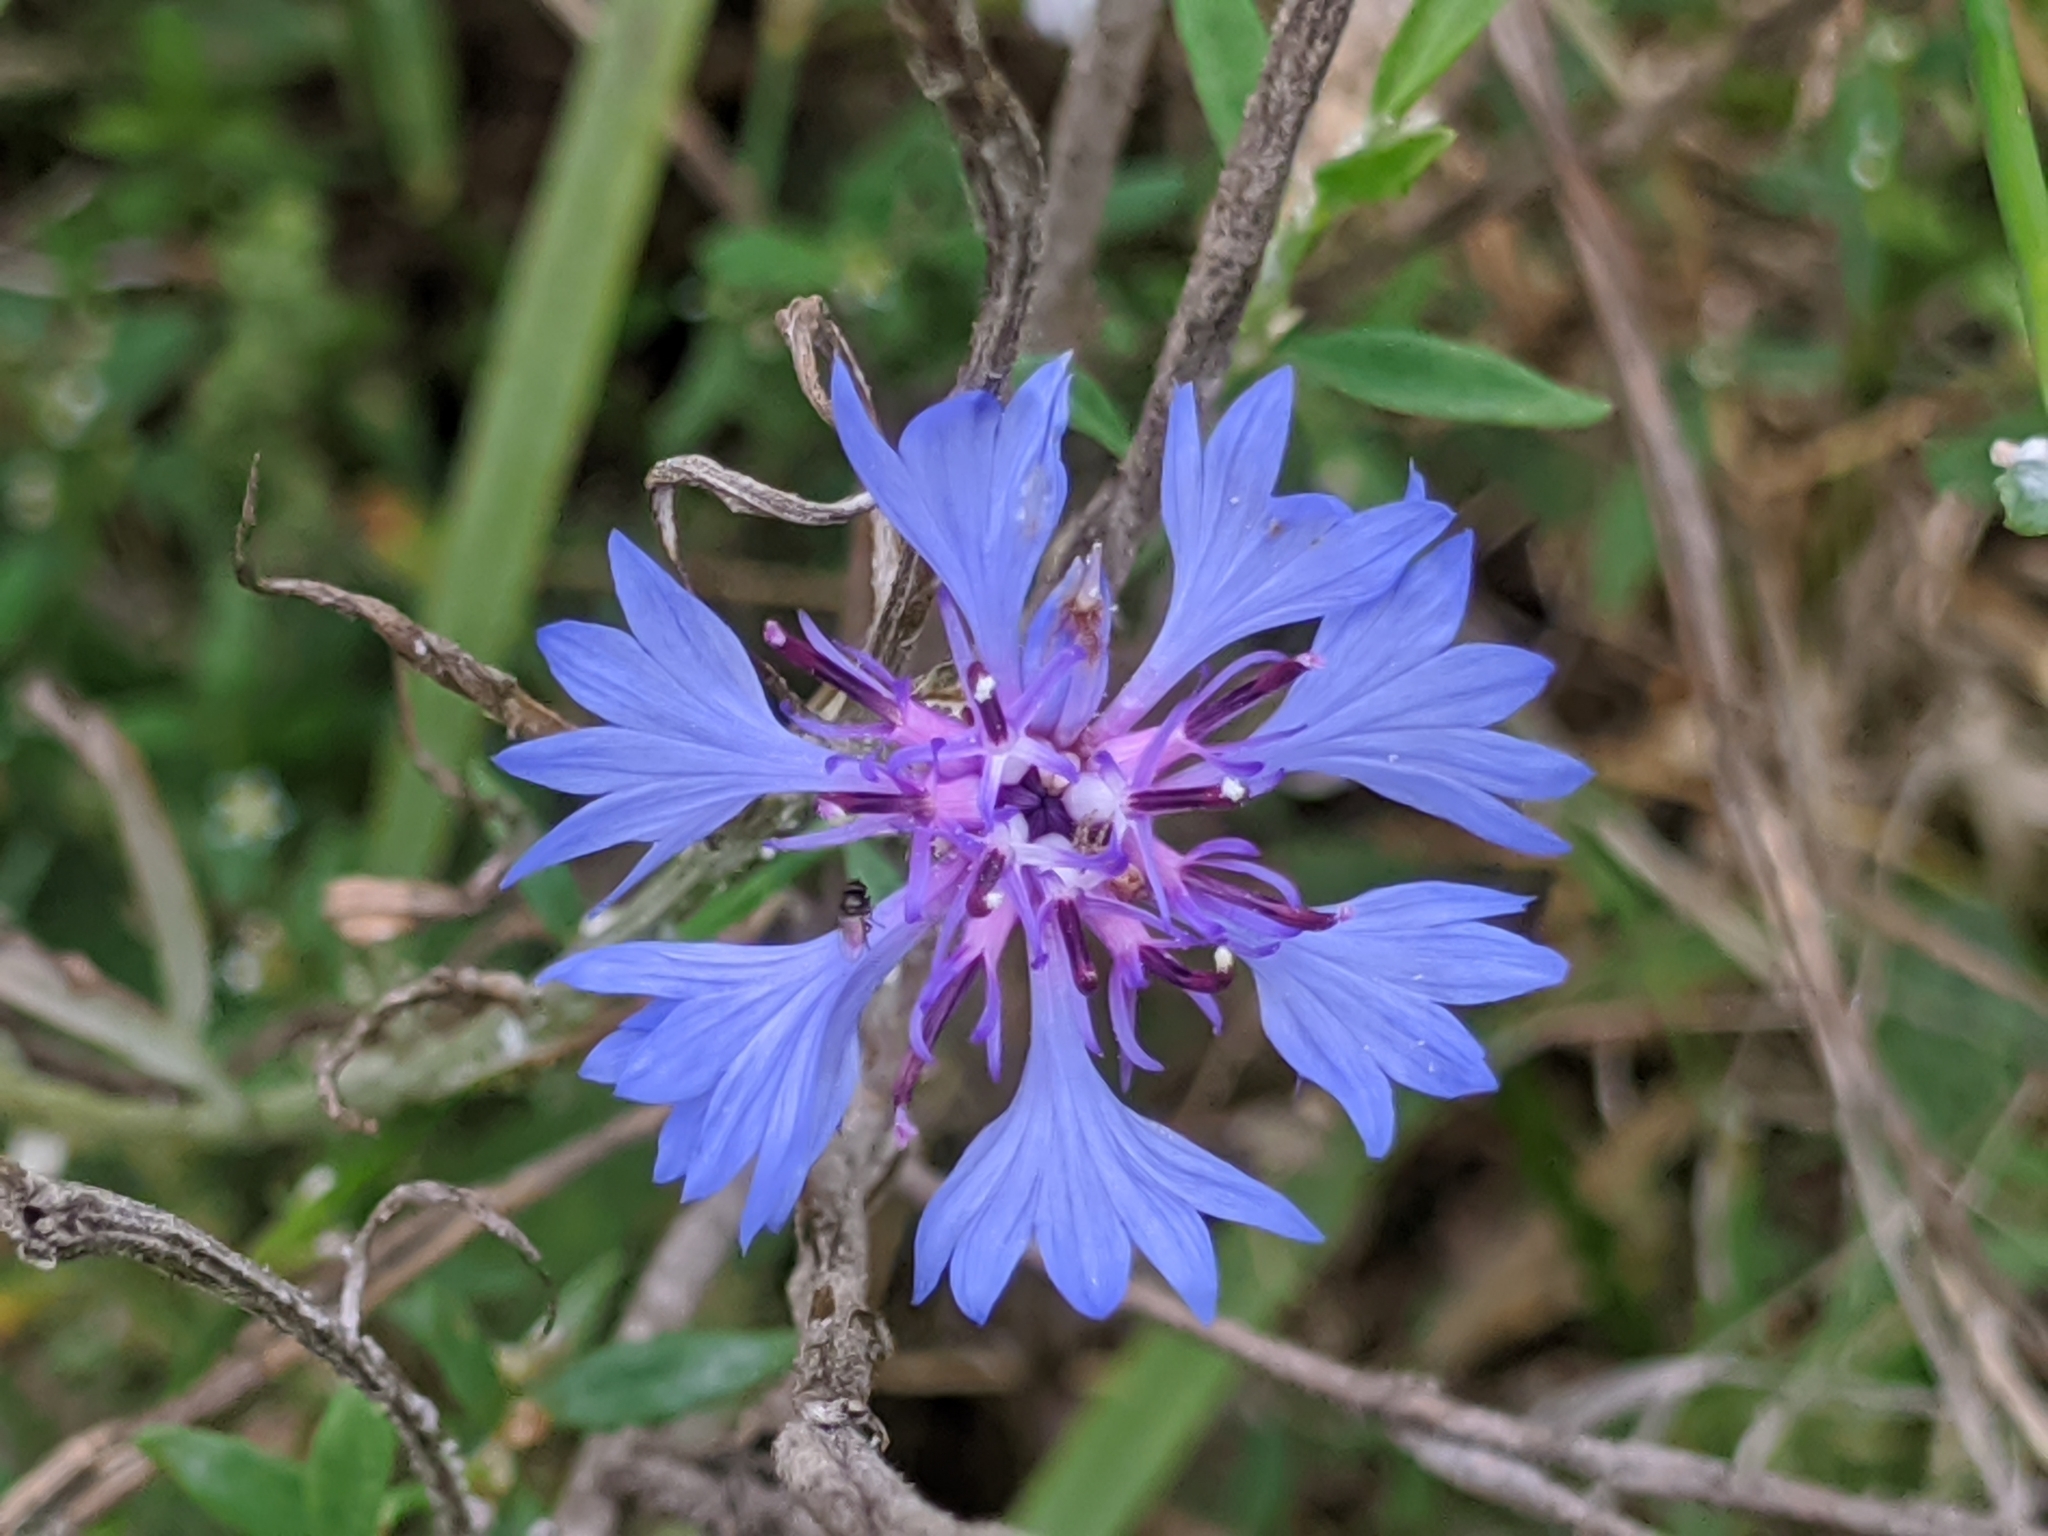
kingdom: Plantae
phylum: Tracheophyta
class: Magnoliopsida
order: Asterales
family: Asteraceae
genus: Centaurea
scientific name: Centaurea cyanus
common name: Cornflower
